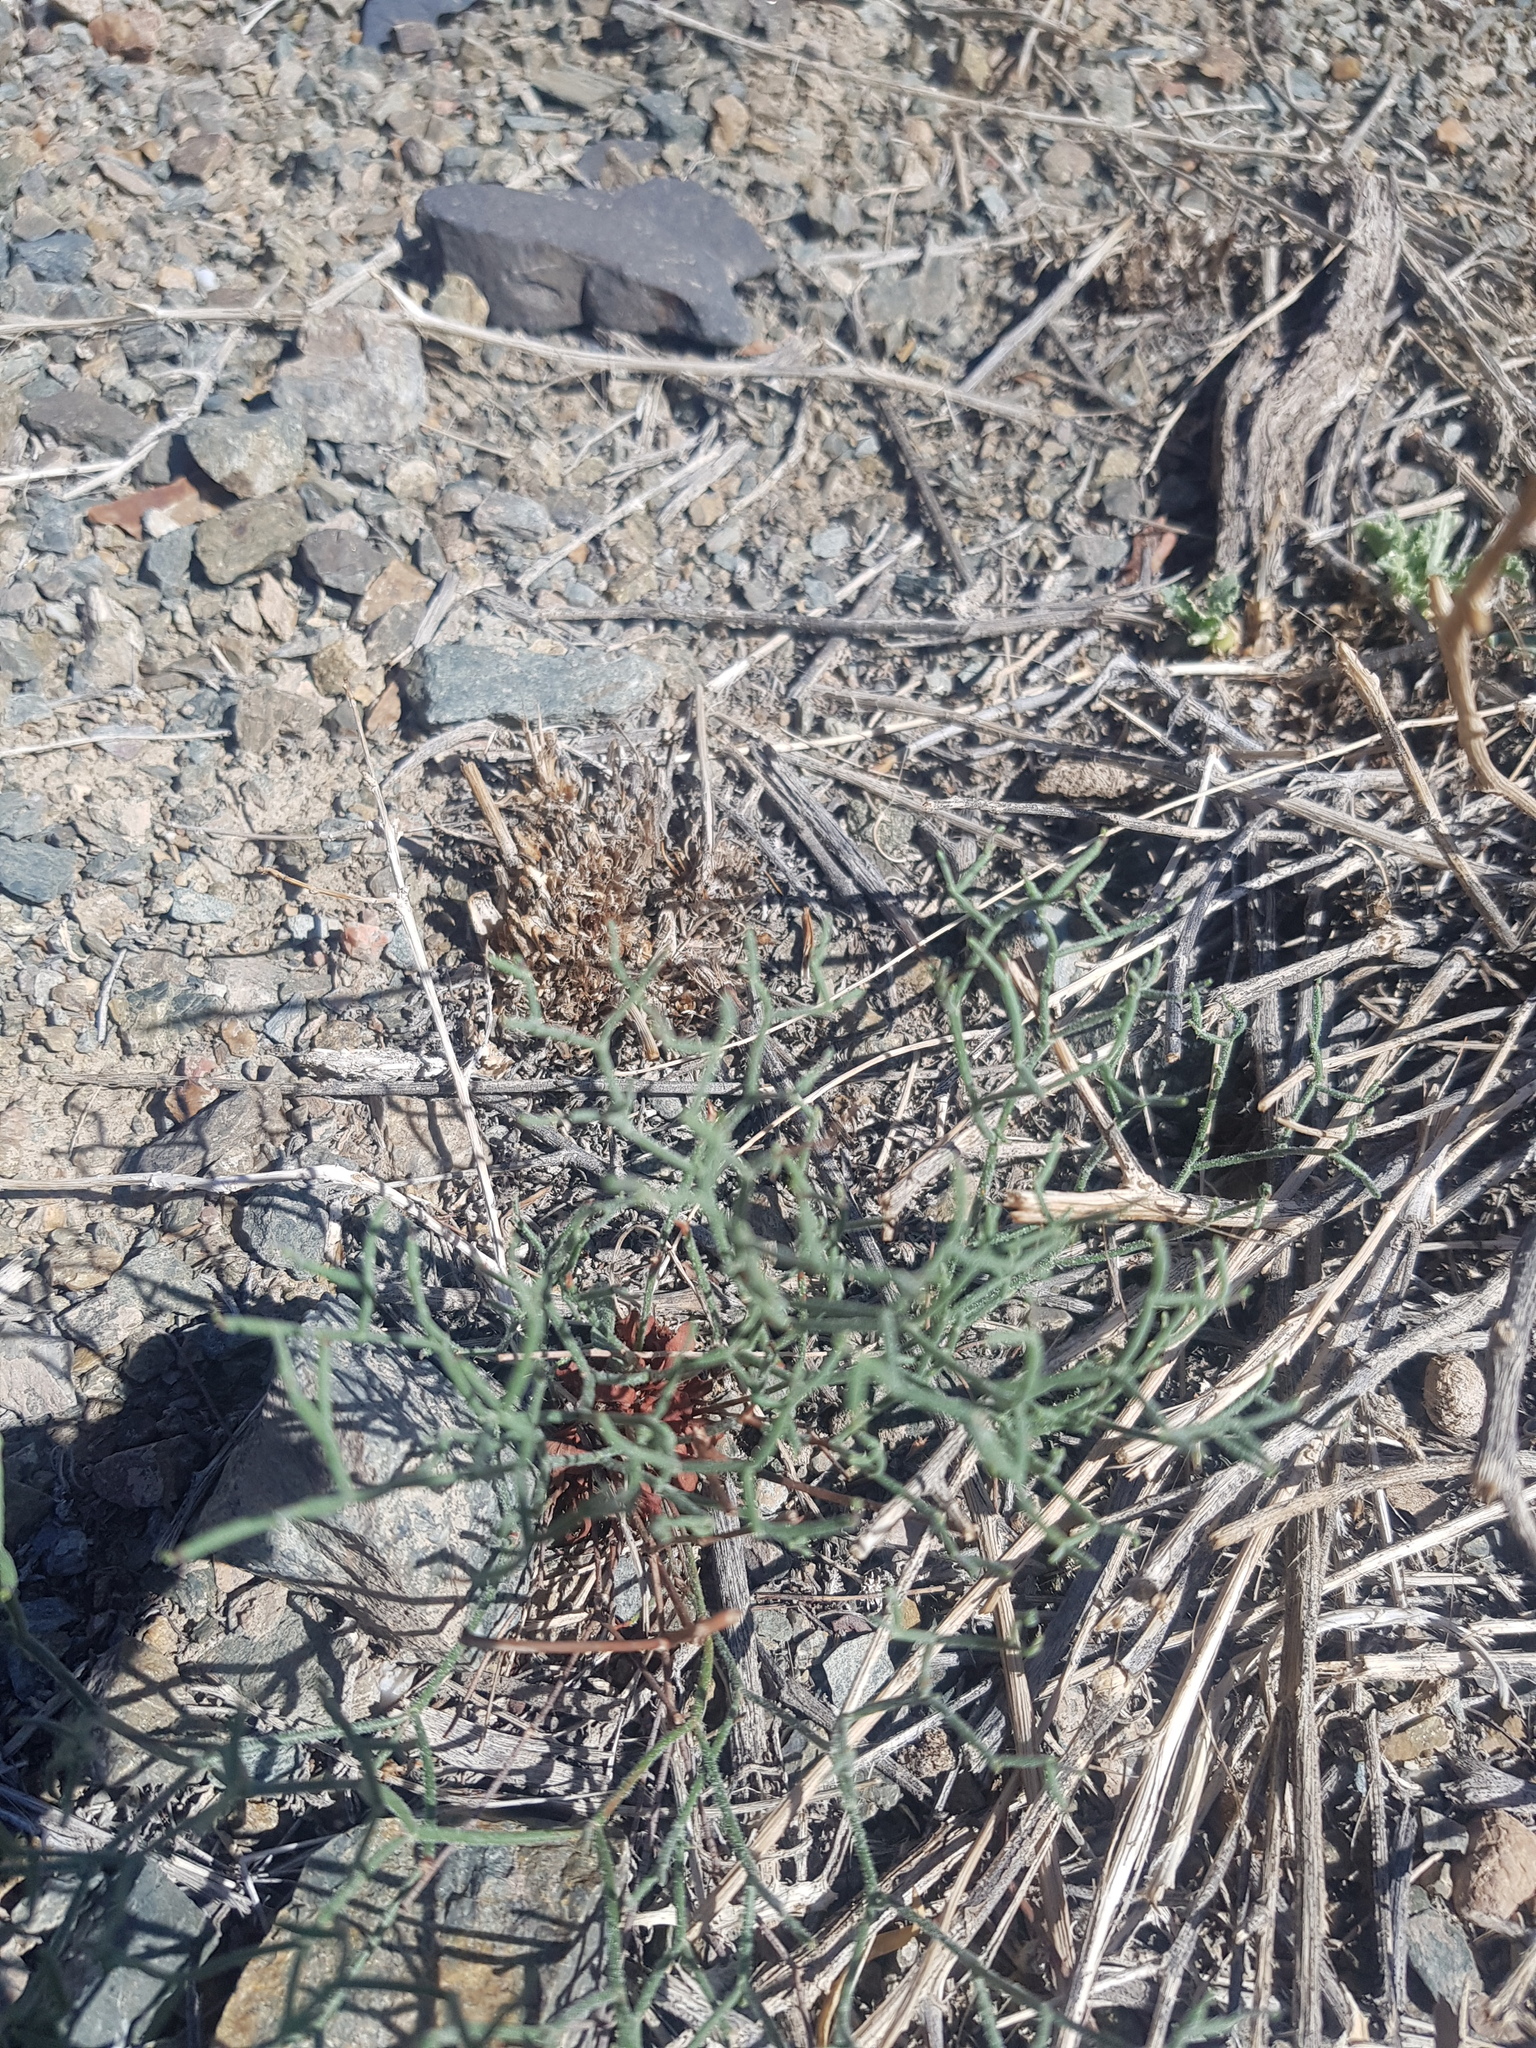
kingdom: Plantae
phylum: Tracheophyta
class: Magnoliopsida
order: Asterales
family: Asteraceae
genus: Takhtajaniantha
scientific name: Takhtajaniantha pseudodivaricata
